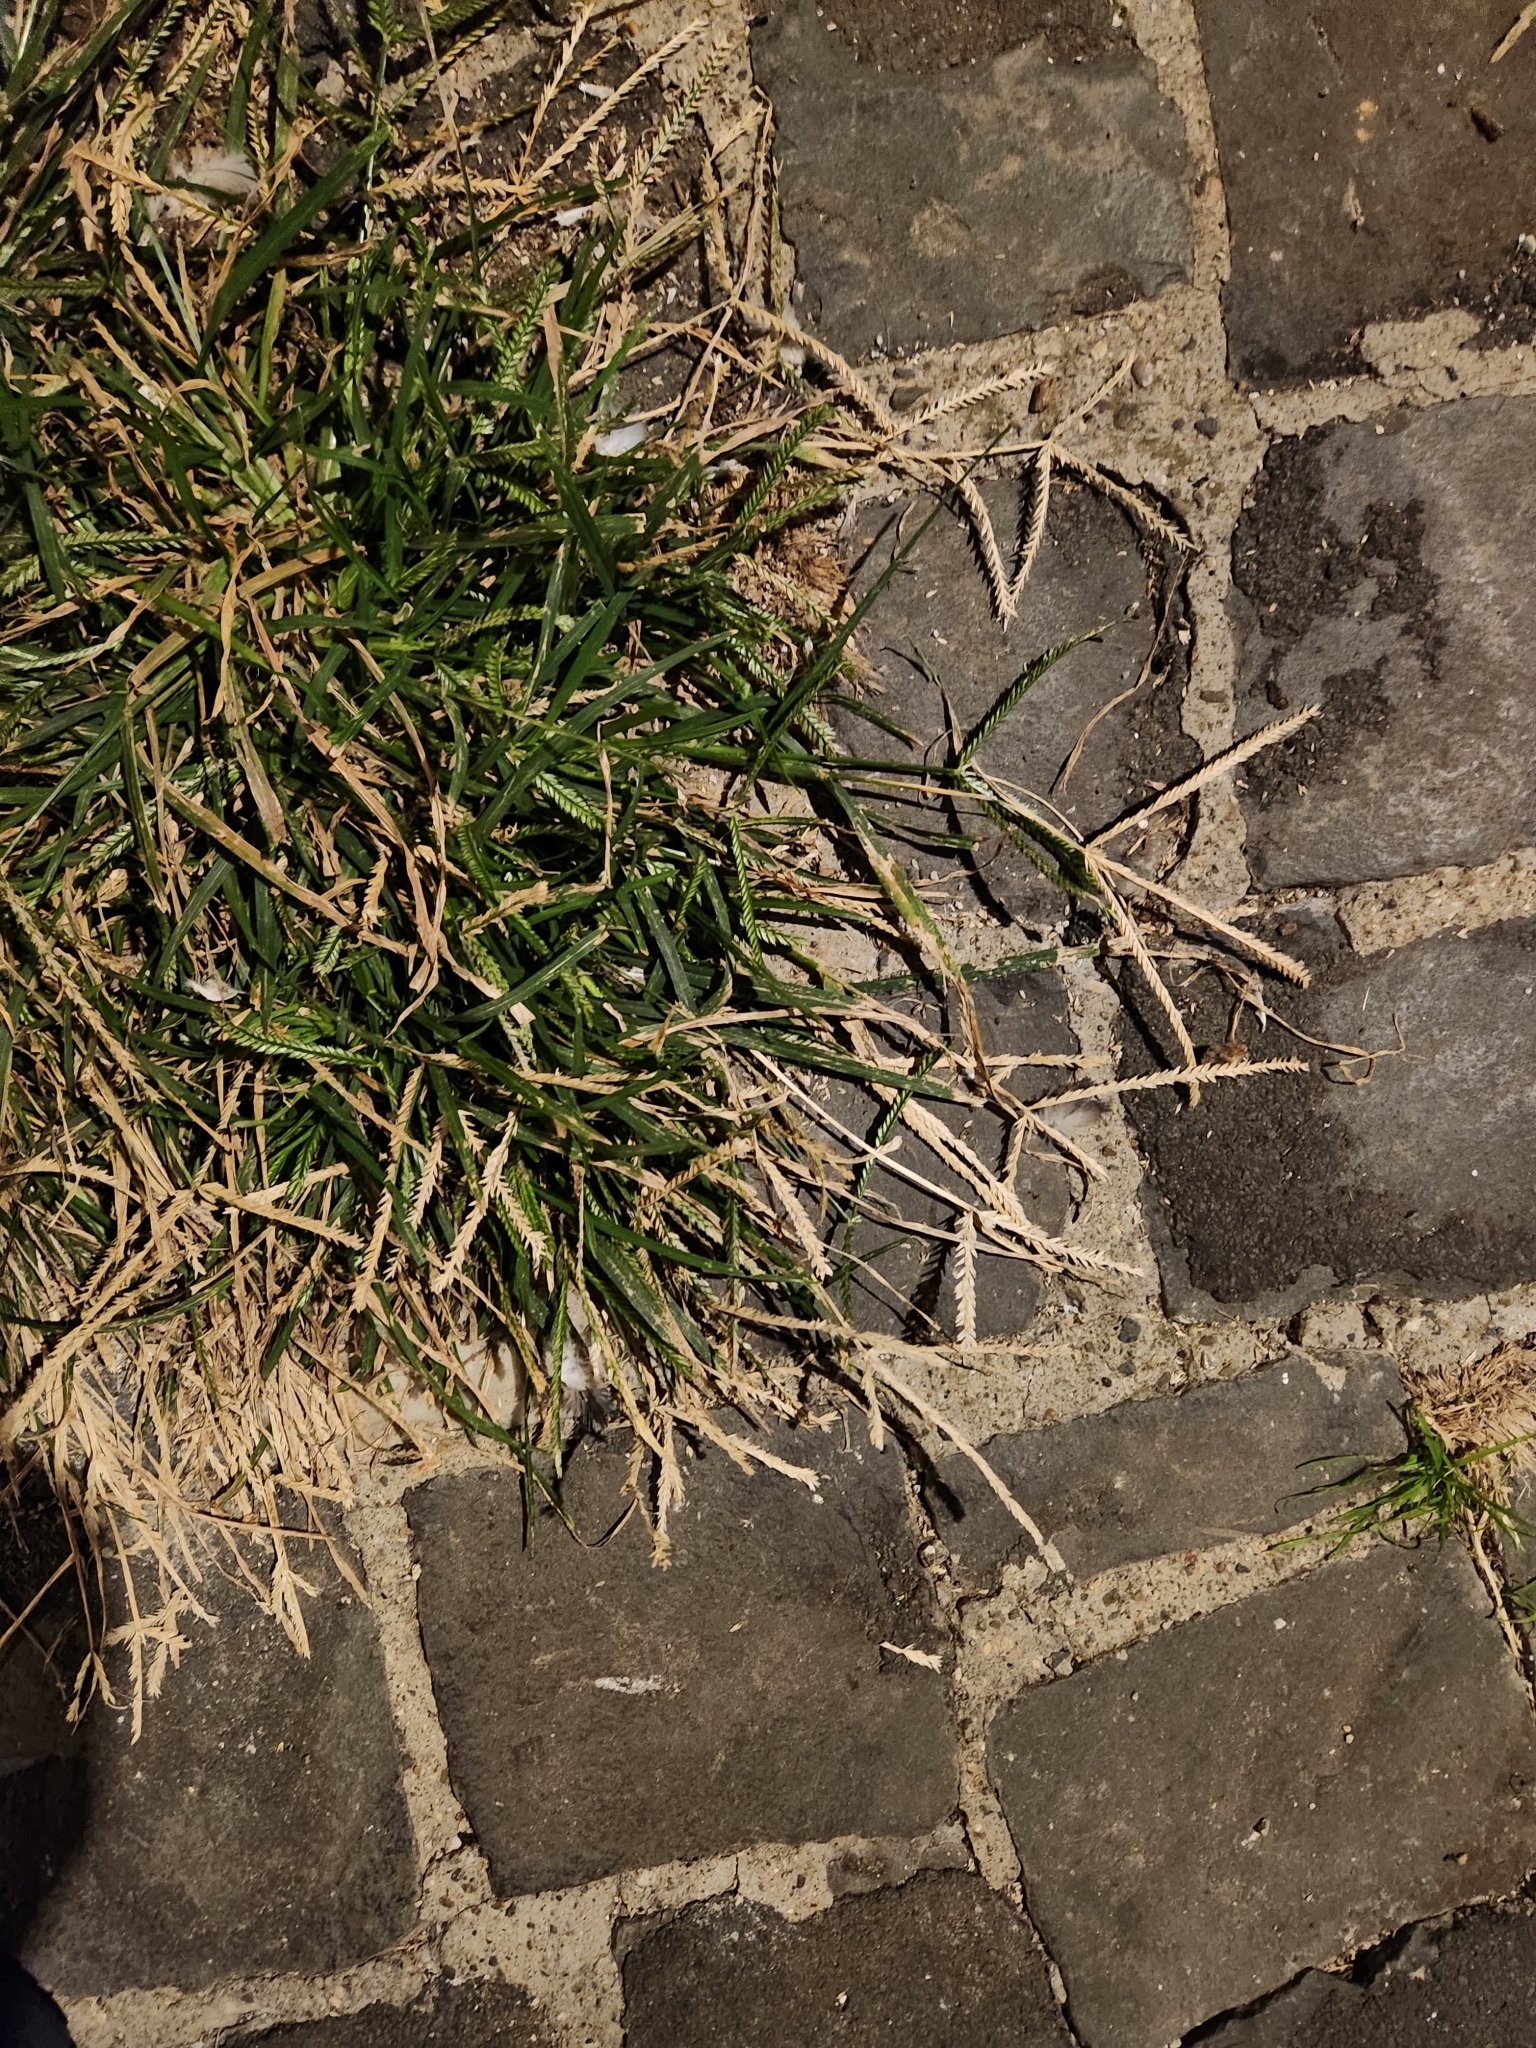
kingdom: Plantae
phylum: Tracheophyta
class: Liliopsida
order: Poales
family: Poaceae
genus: Eleusine
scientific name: Eleusine indica
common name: Yard-grass
